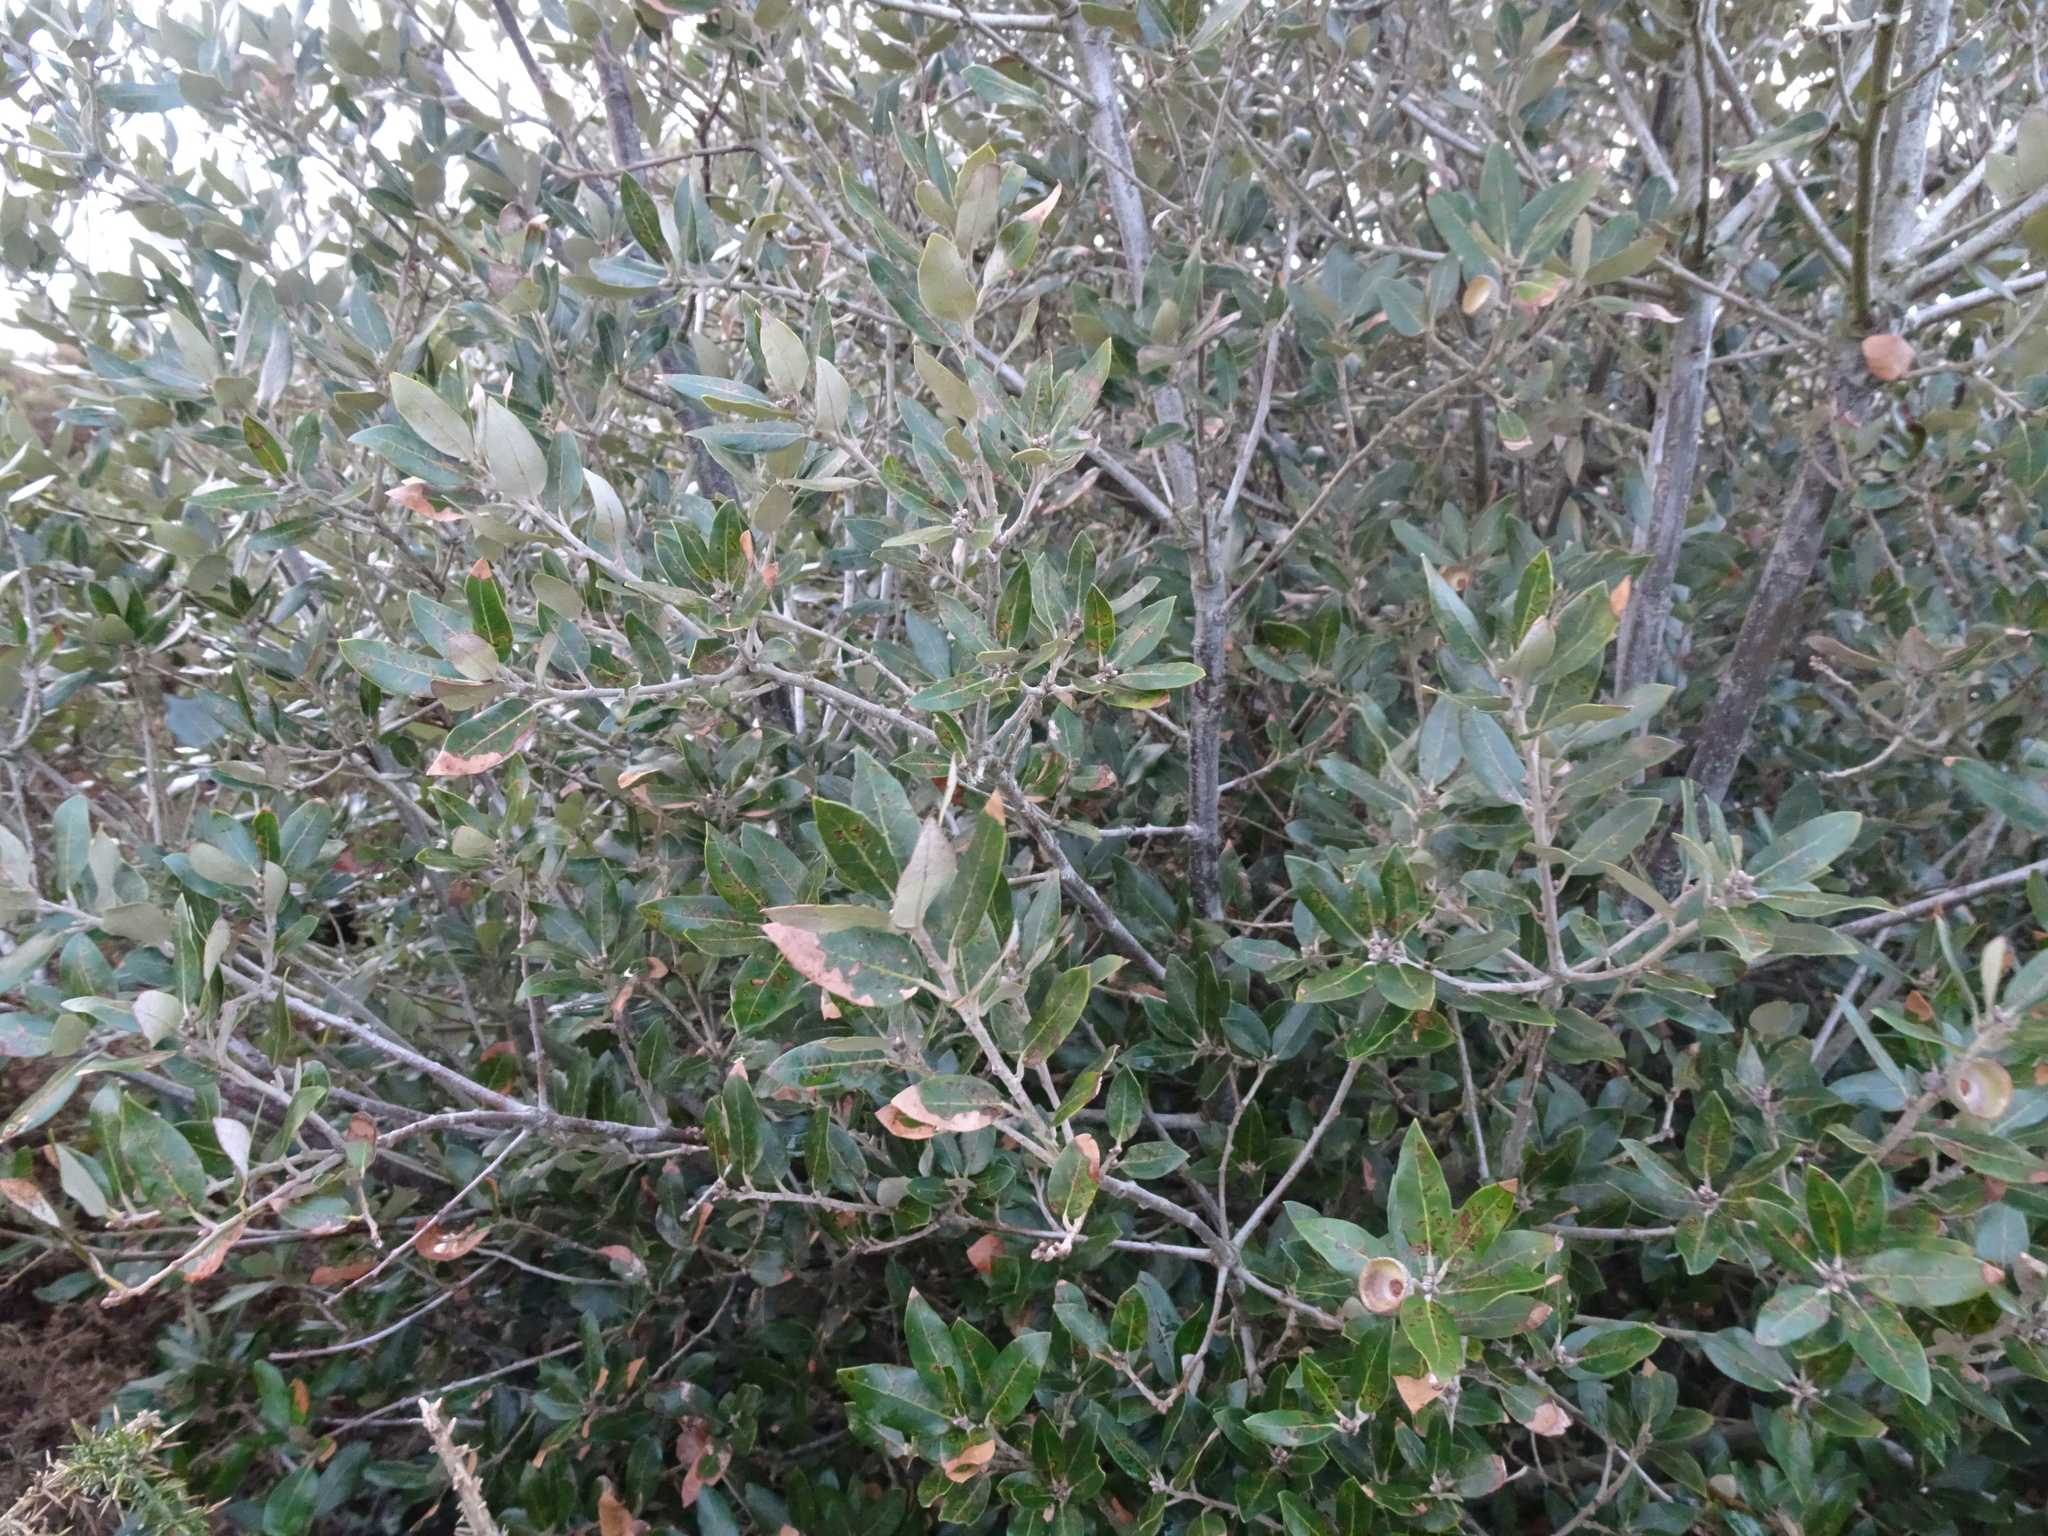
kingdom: Plantae
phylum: Tracheophyta
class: Magnoliopsida
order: Fagales
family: Fagaceae
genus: Quercus
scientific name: Quercus ilex
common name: Evergreen oak
